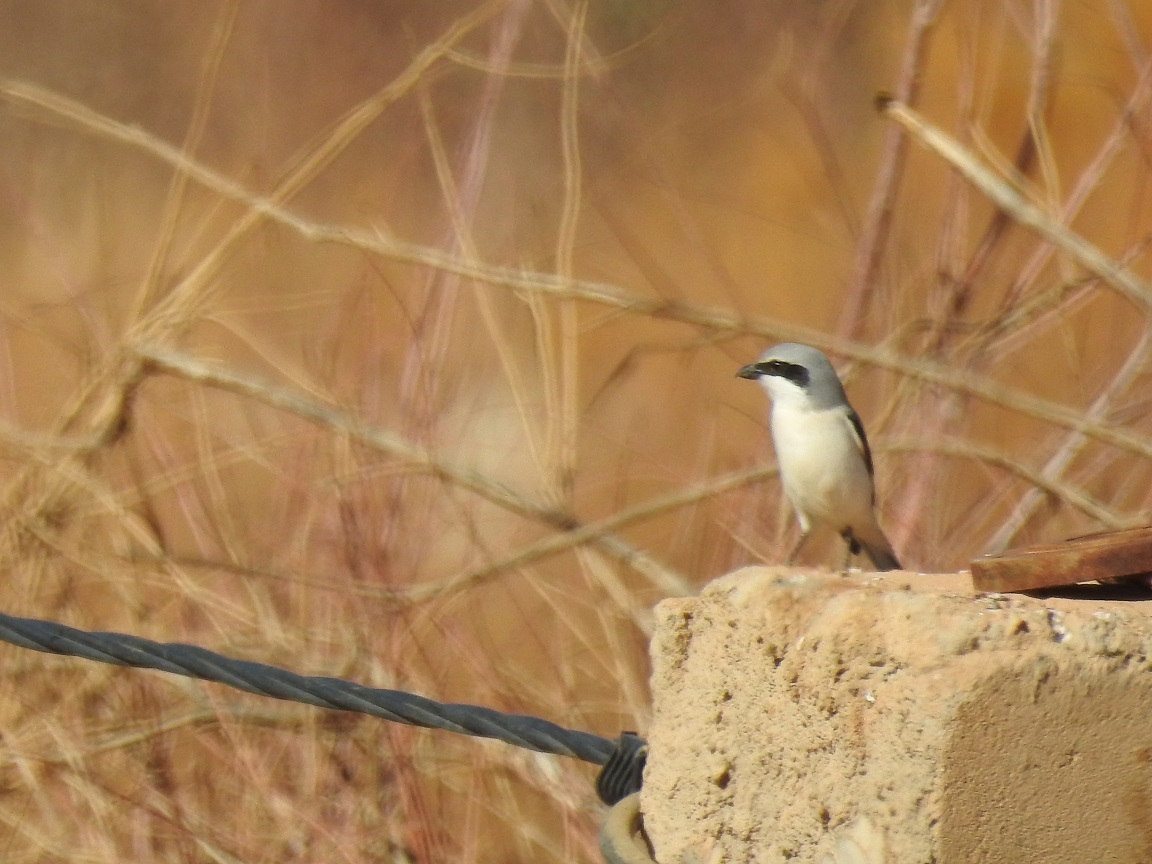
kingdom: Animalia
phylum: Chordata
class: Aves
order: Passeriformes
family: Laniidae
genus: Lanius
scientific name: Lanius excubitor
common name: Great grey shrike
